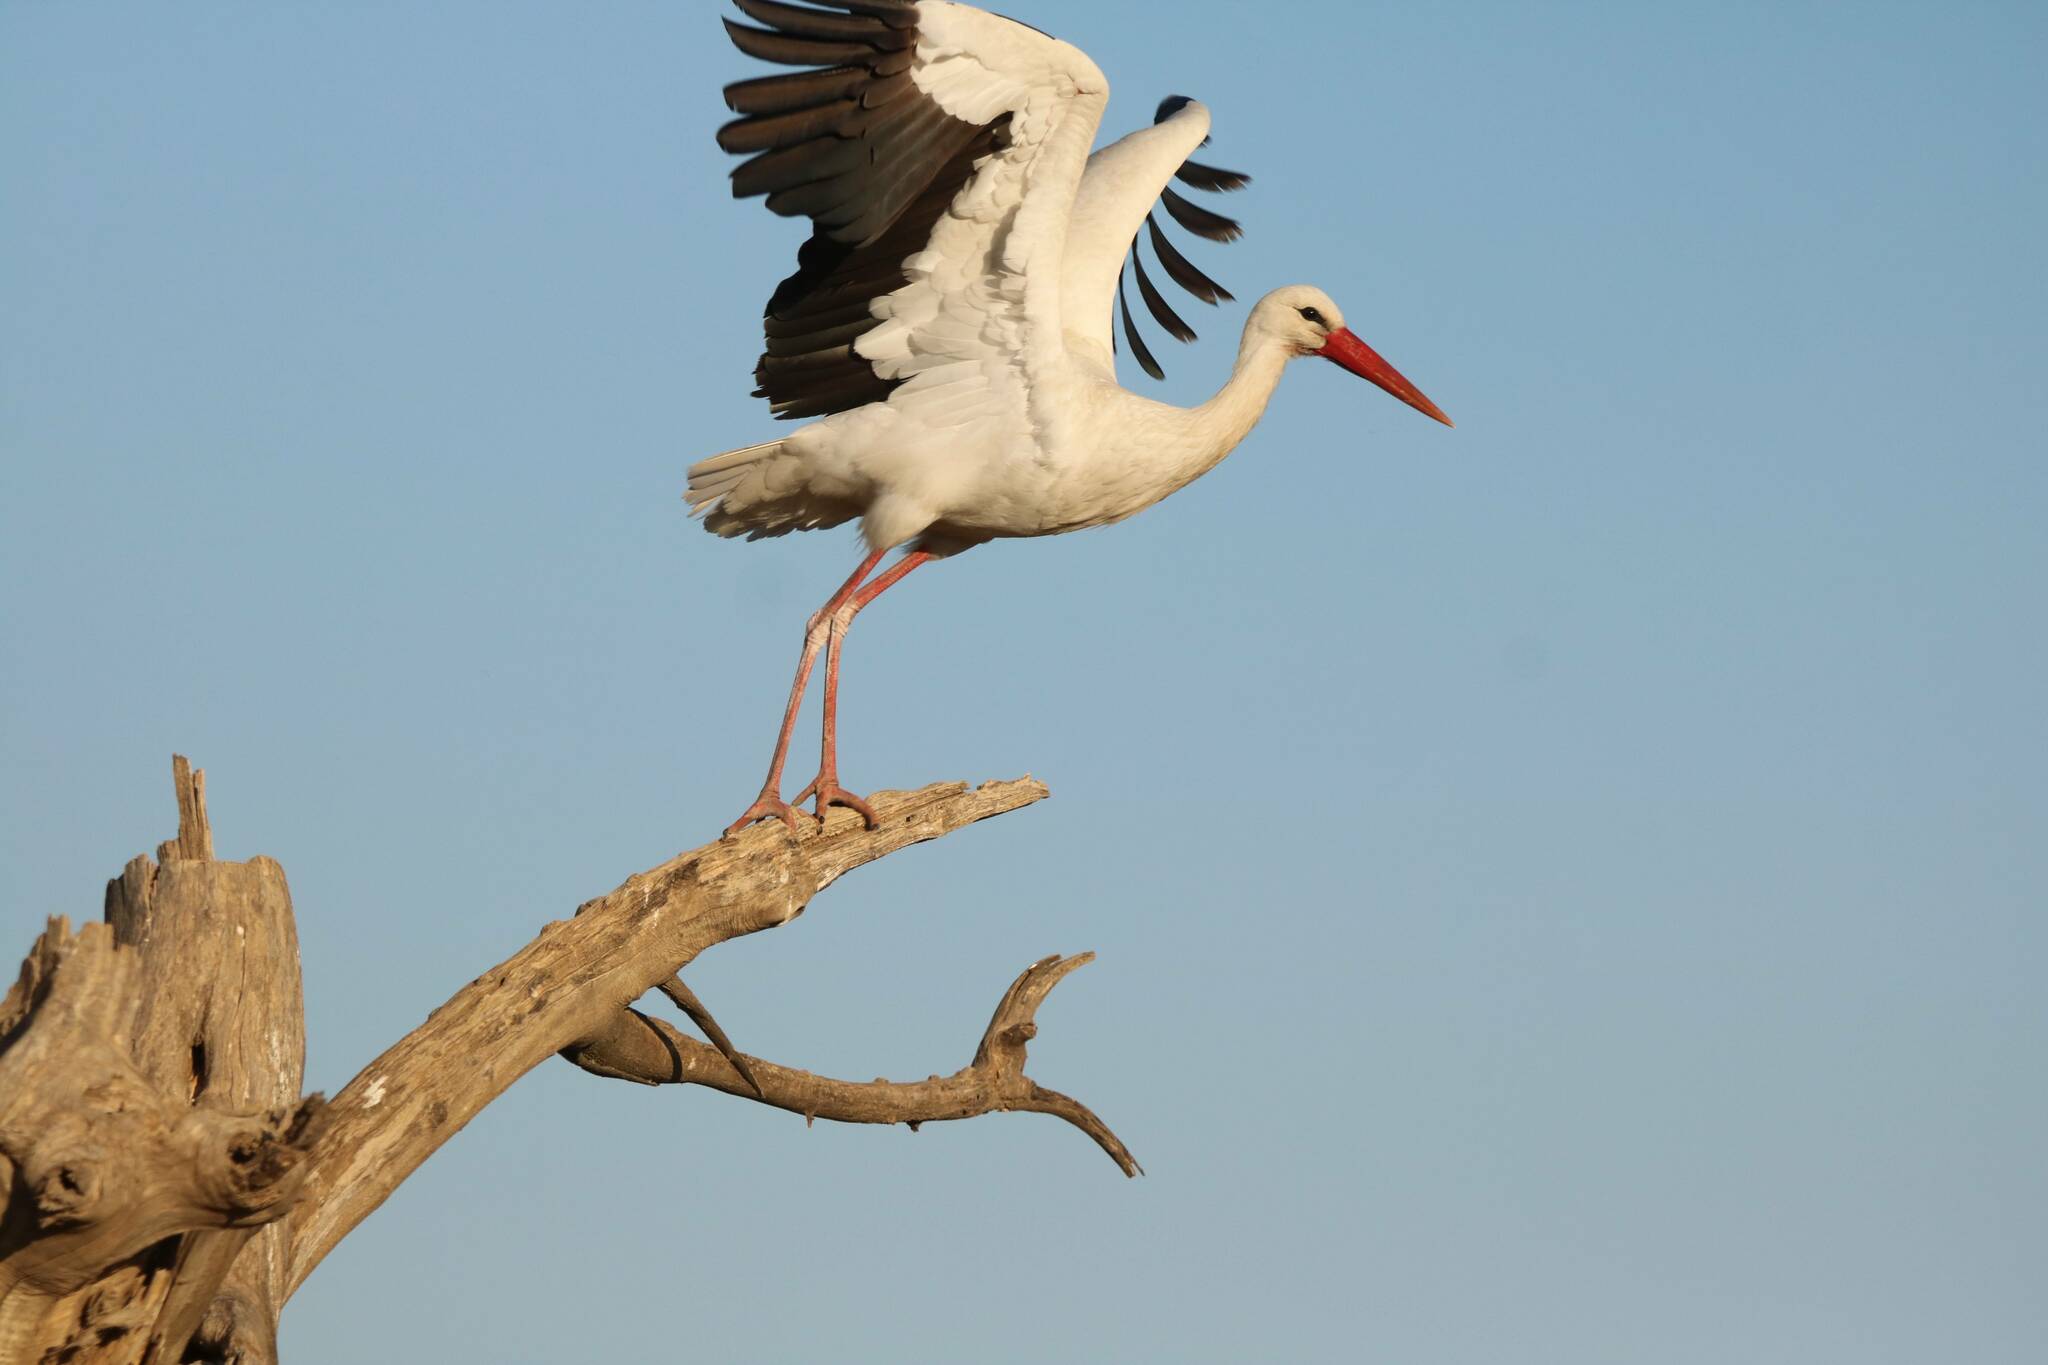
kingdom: Animalia
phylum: Chordata
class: Aves
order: Ciconiiformes
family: Ciconiidae
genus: Ciconia
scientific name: Ciconia ciconia
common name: White stork
